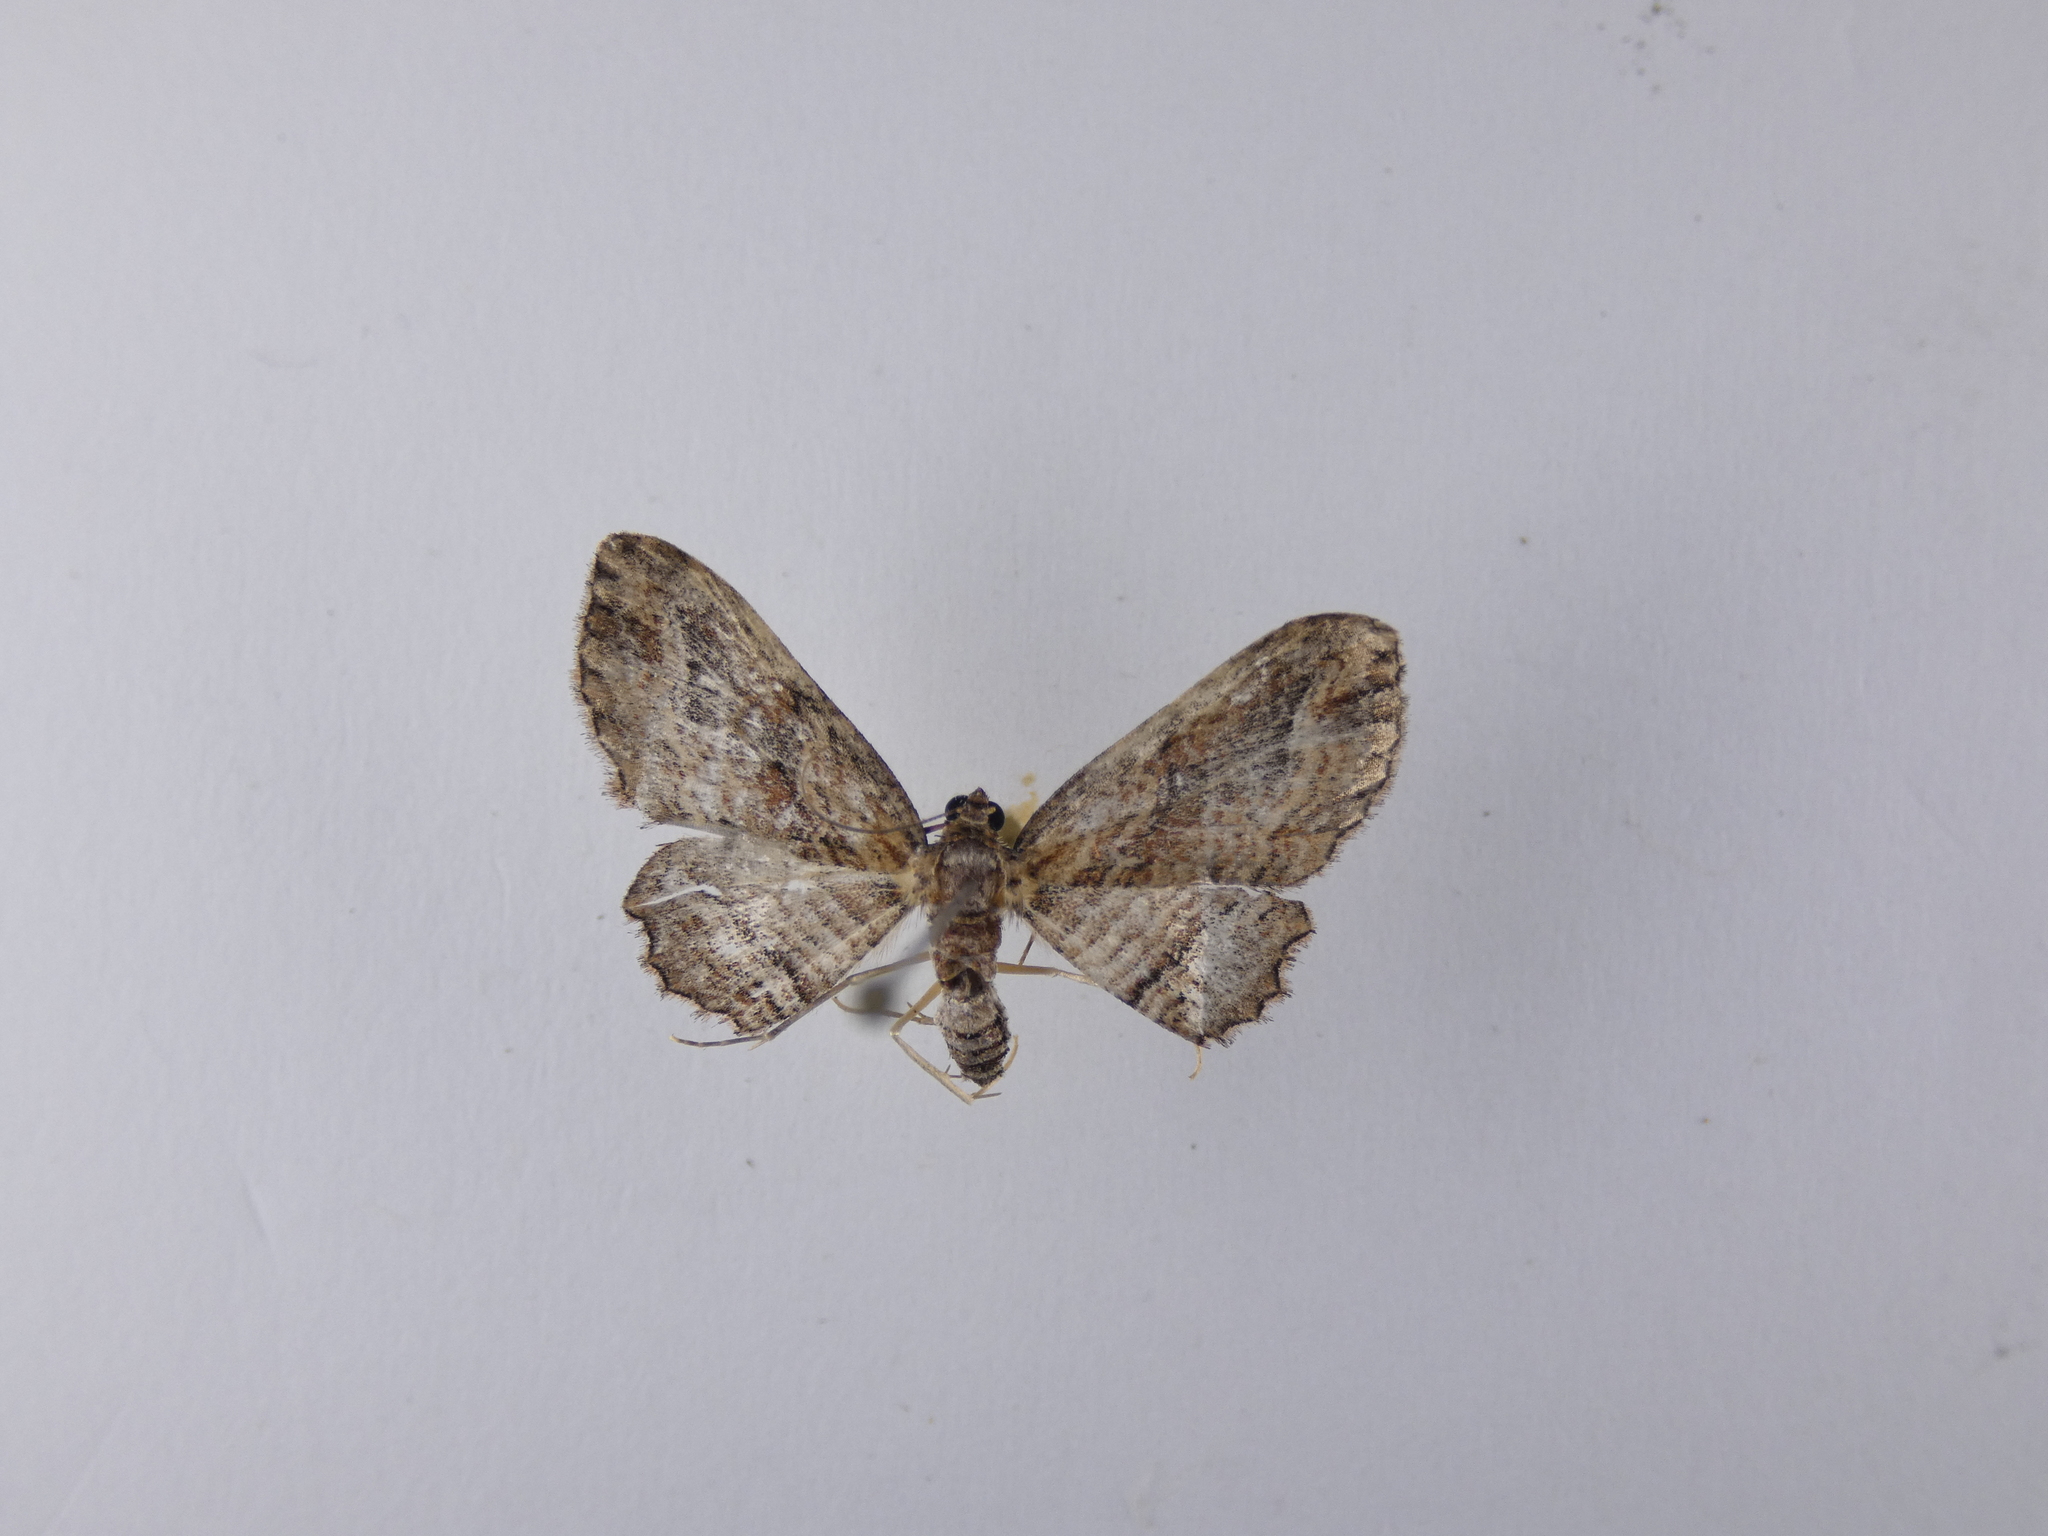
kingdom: Animalia
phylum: Arthropoda
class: Insecta
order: Lepidoptera
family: Geometridae
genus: Chloroclystis
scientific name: Chloroclystis filata
